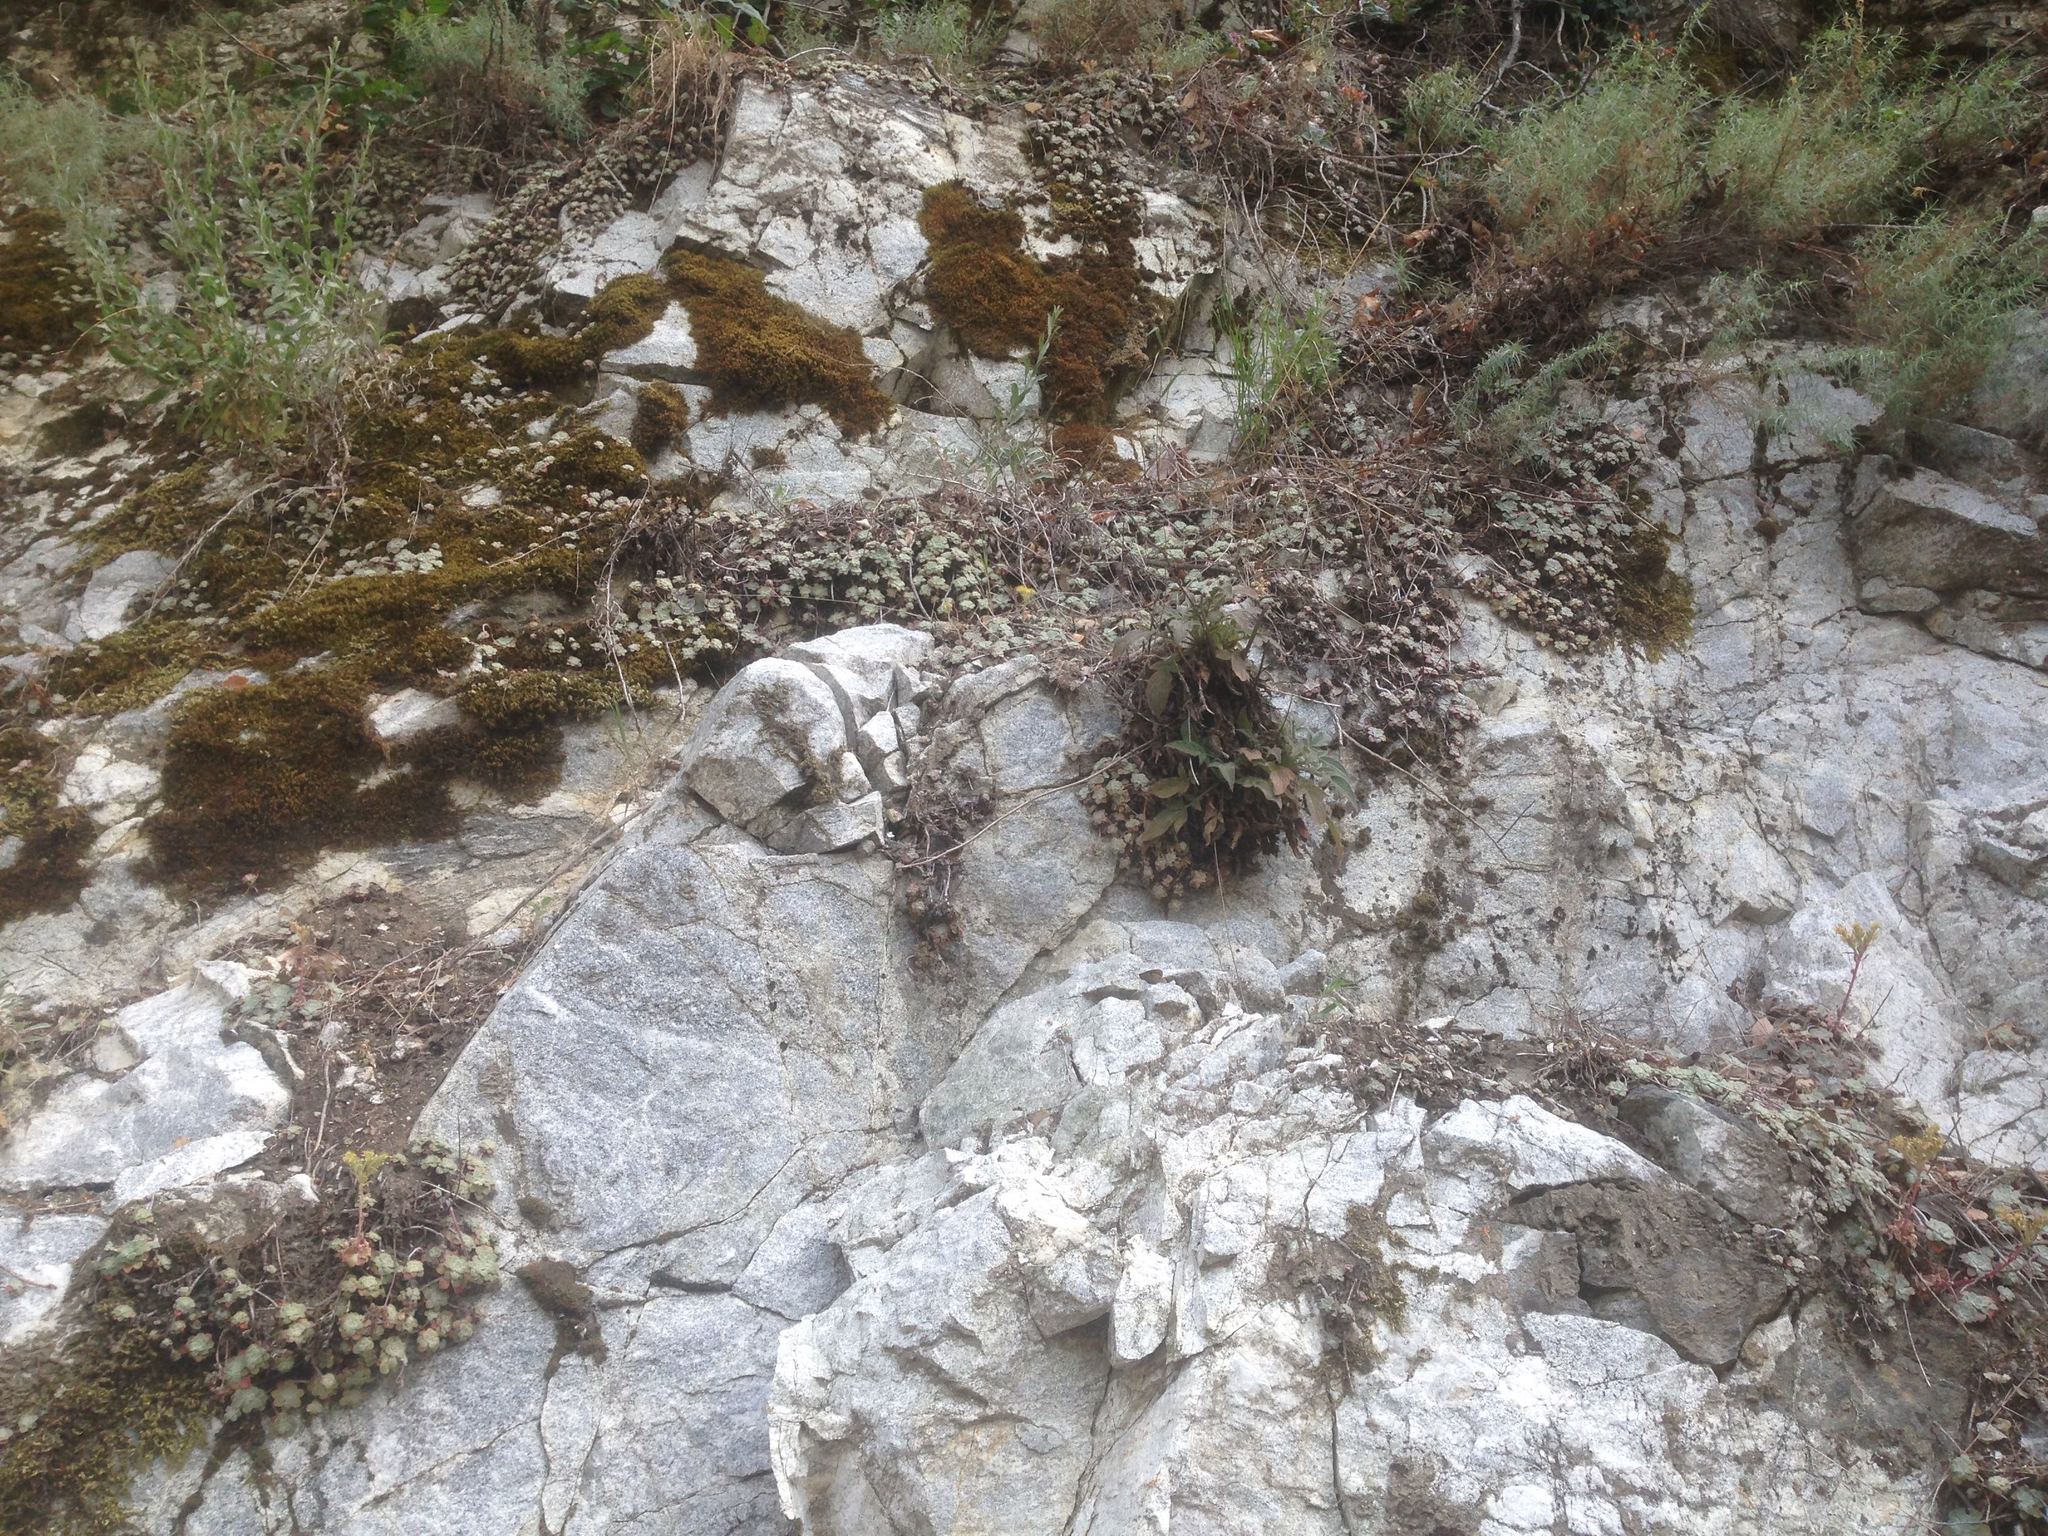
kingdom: Plantae
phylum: Tracheophyta
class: Magnoliopsida
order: Saxifragales
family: Crassulaceae
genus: Sedum
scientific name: Sedum spathulifolium
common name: Colorado stonecrop
